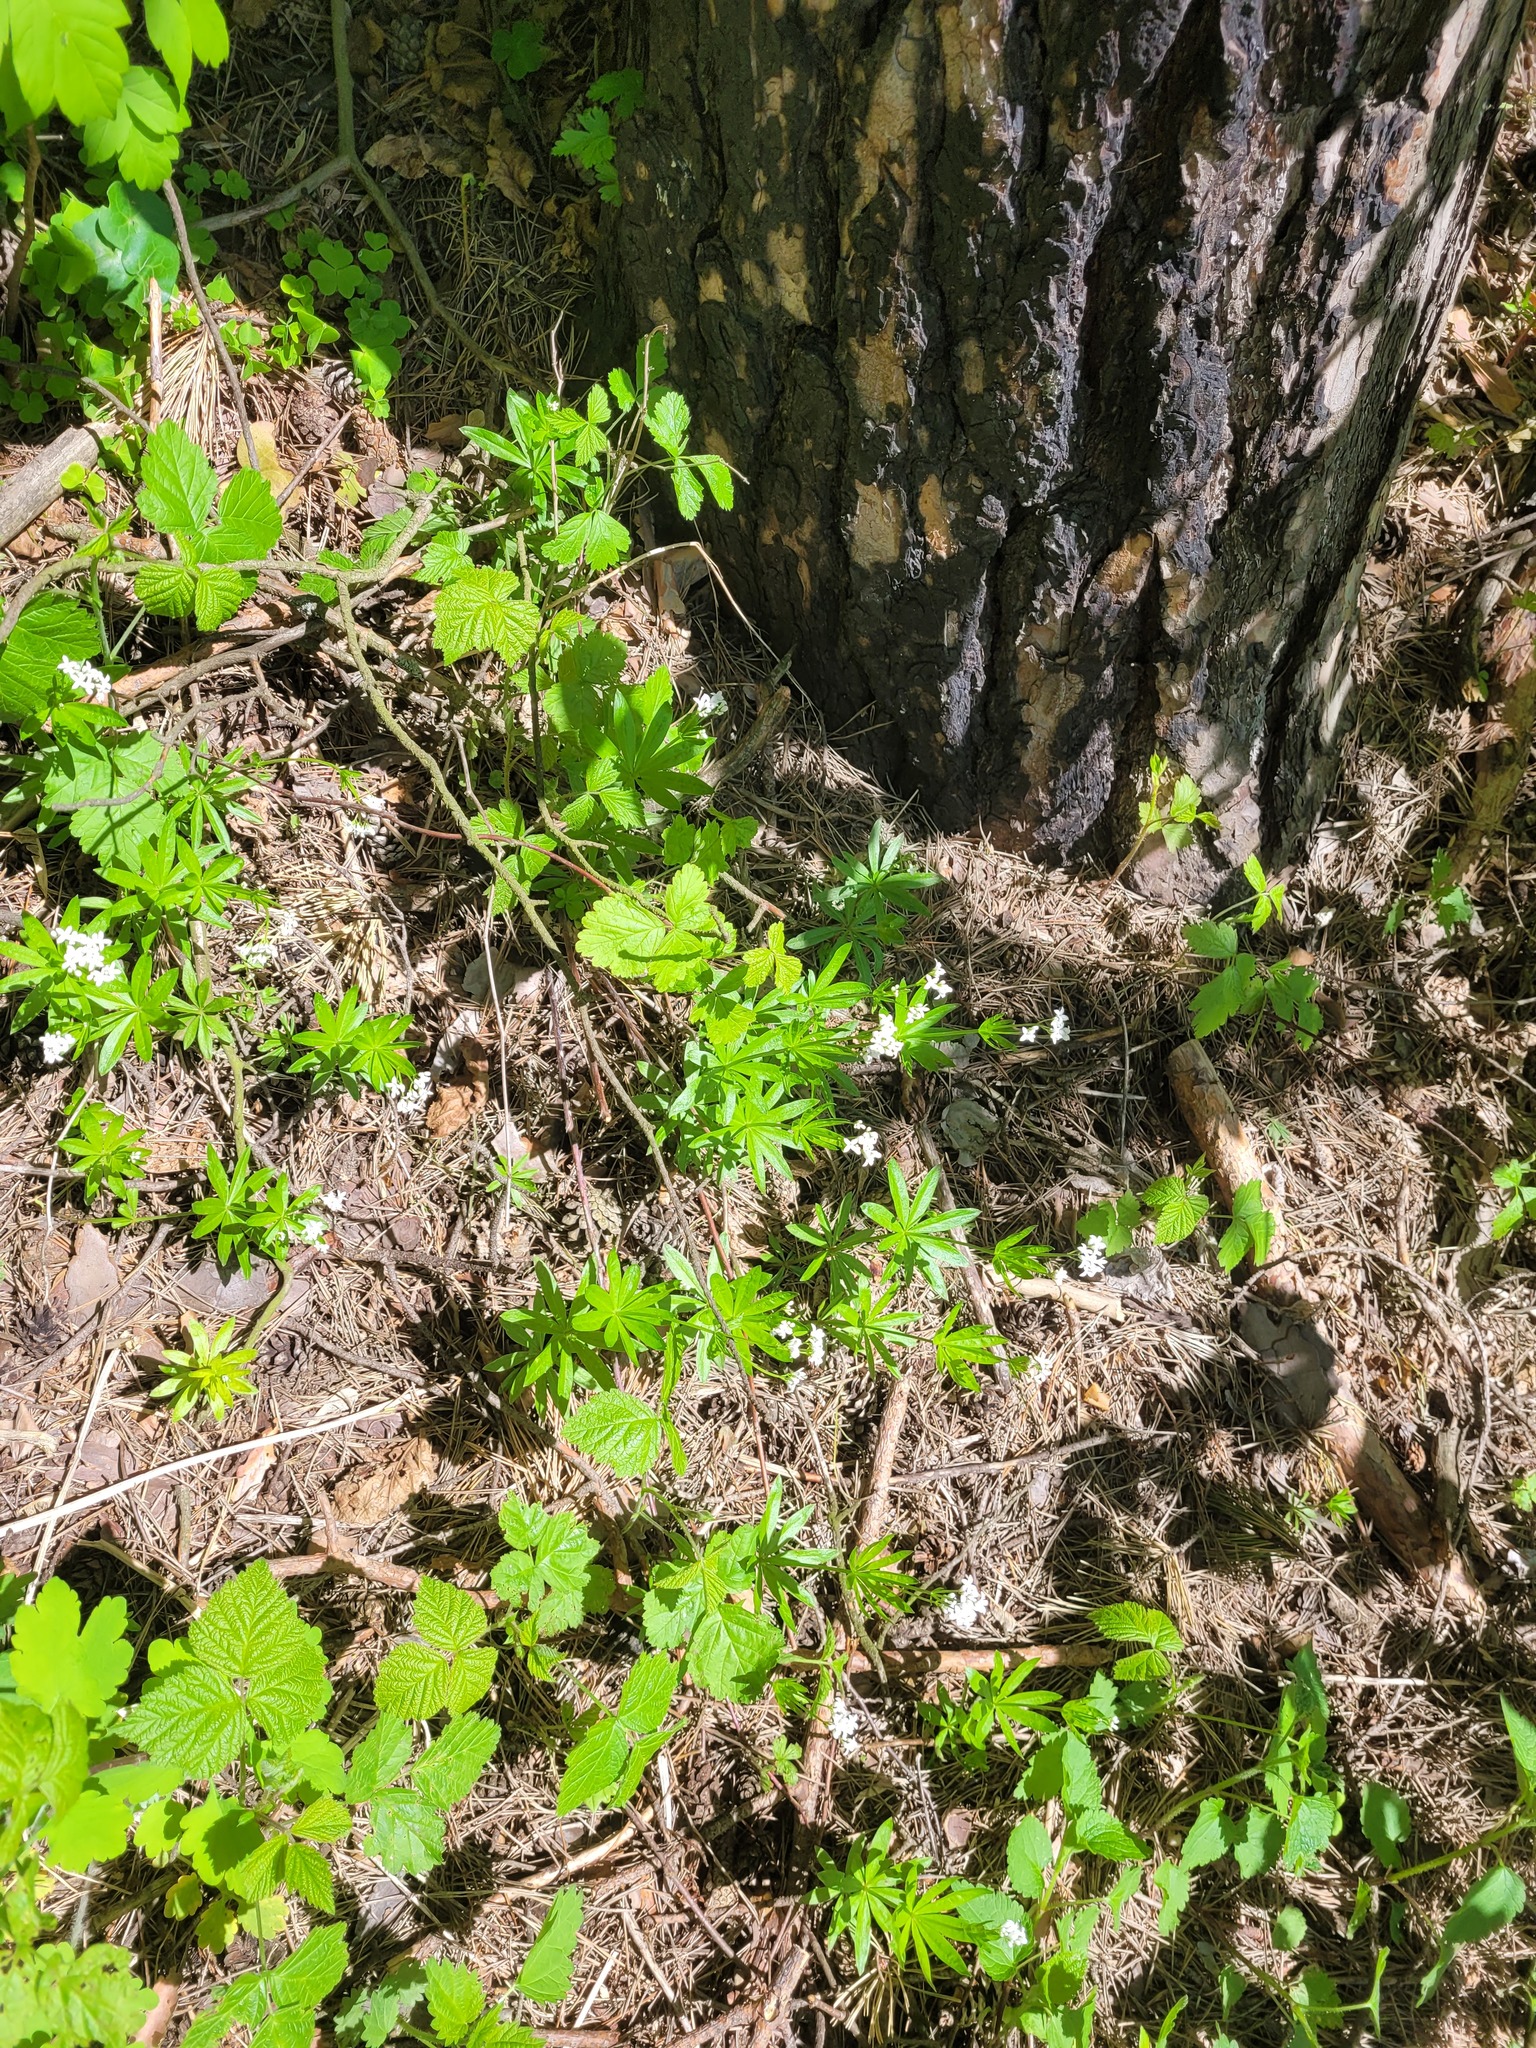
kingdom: Plantae
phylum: Tracheophyta
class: Magnoliopsida
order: Gentianales
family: Rubiaceae
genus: Galium
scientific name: Galium odoratum
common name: Sweet woodruff
